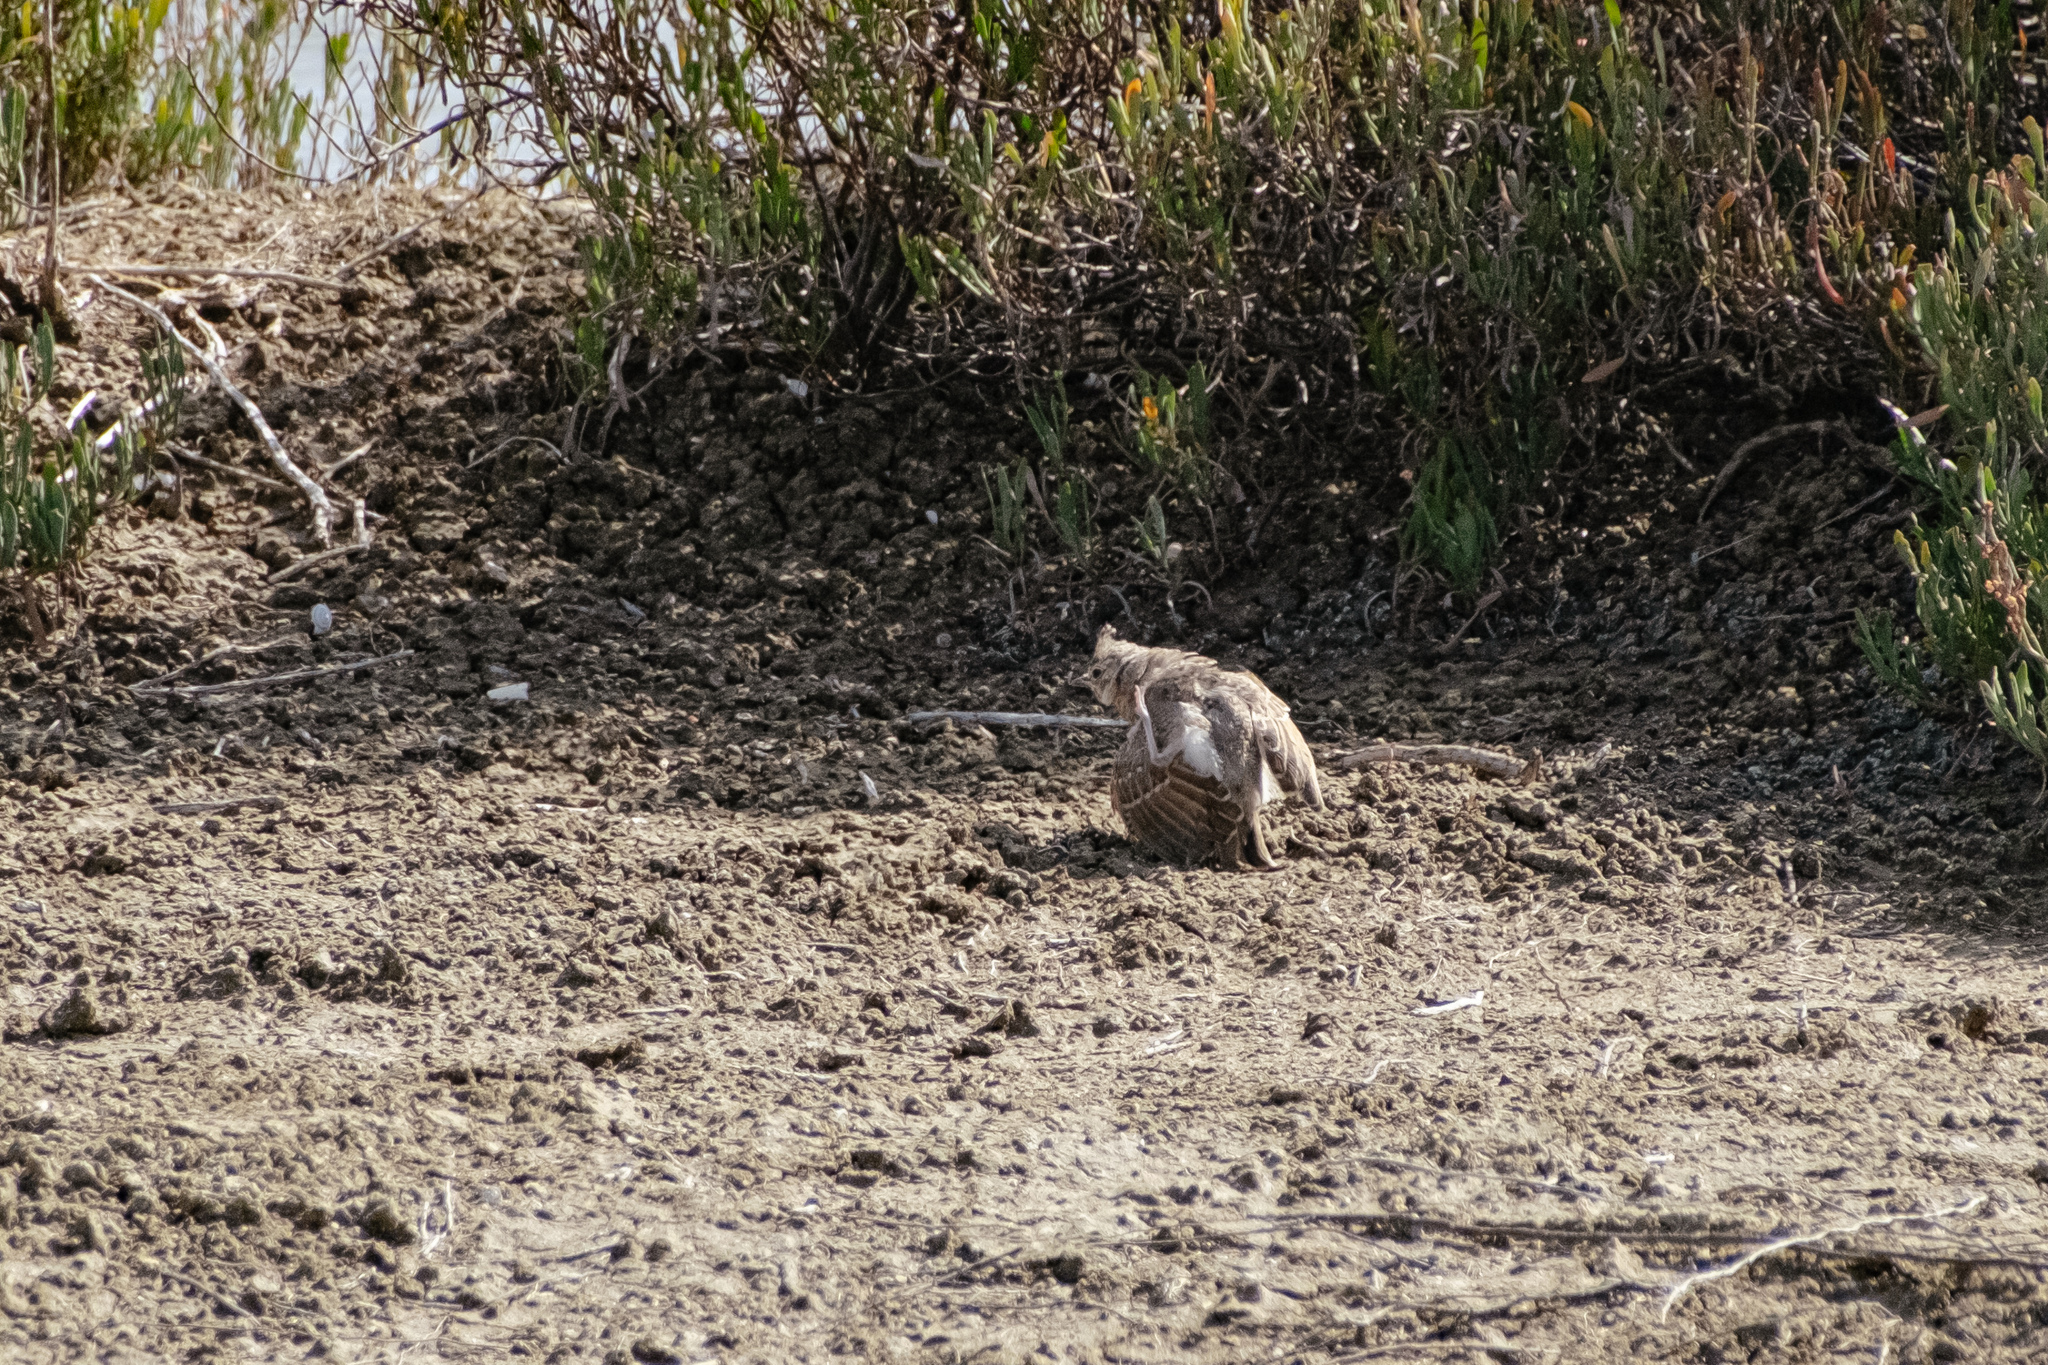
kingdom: Animalia
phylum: Chordata
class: Aves
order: Passeriformes
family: Alaudidae
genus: Galerida
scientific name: Galerida cristata
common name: Crested lark
